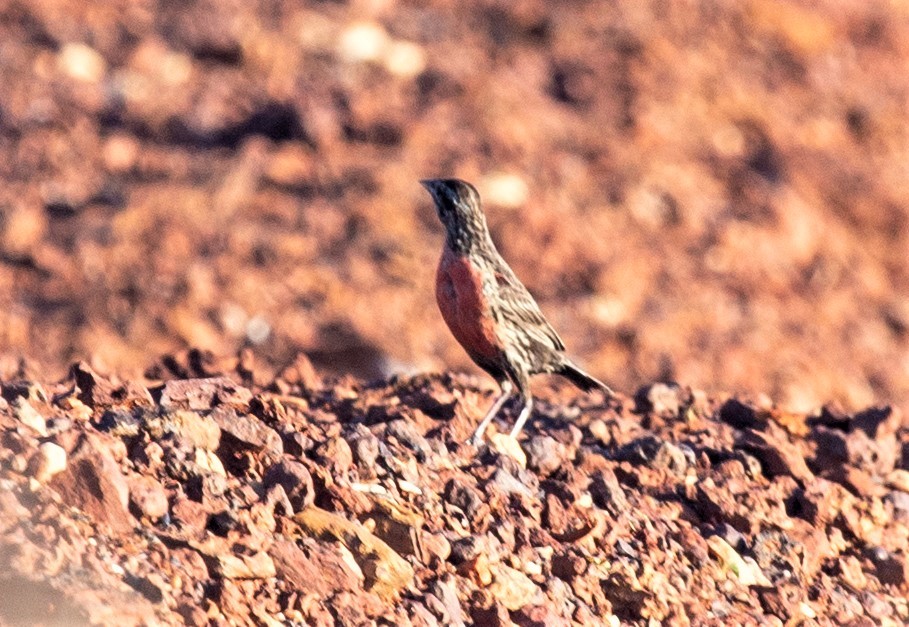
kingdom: Animalia
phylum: Chordata
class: Aves
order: Passeriformes
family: Icteridae
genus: Sturnella
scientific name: Sturnella militaris
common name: Red-breasted blackbird
